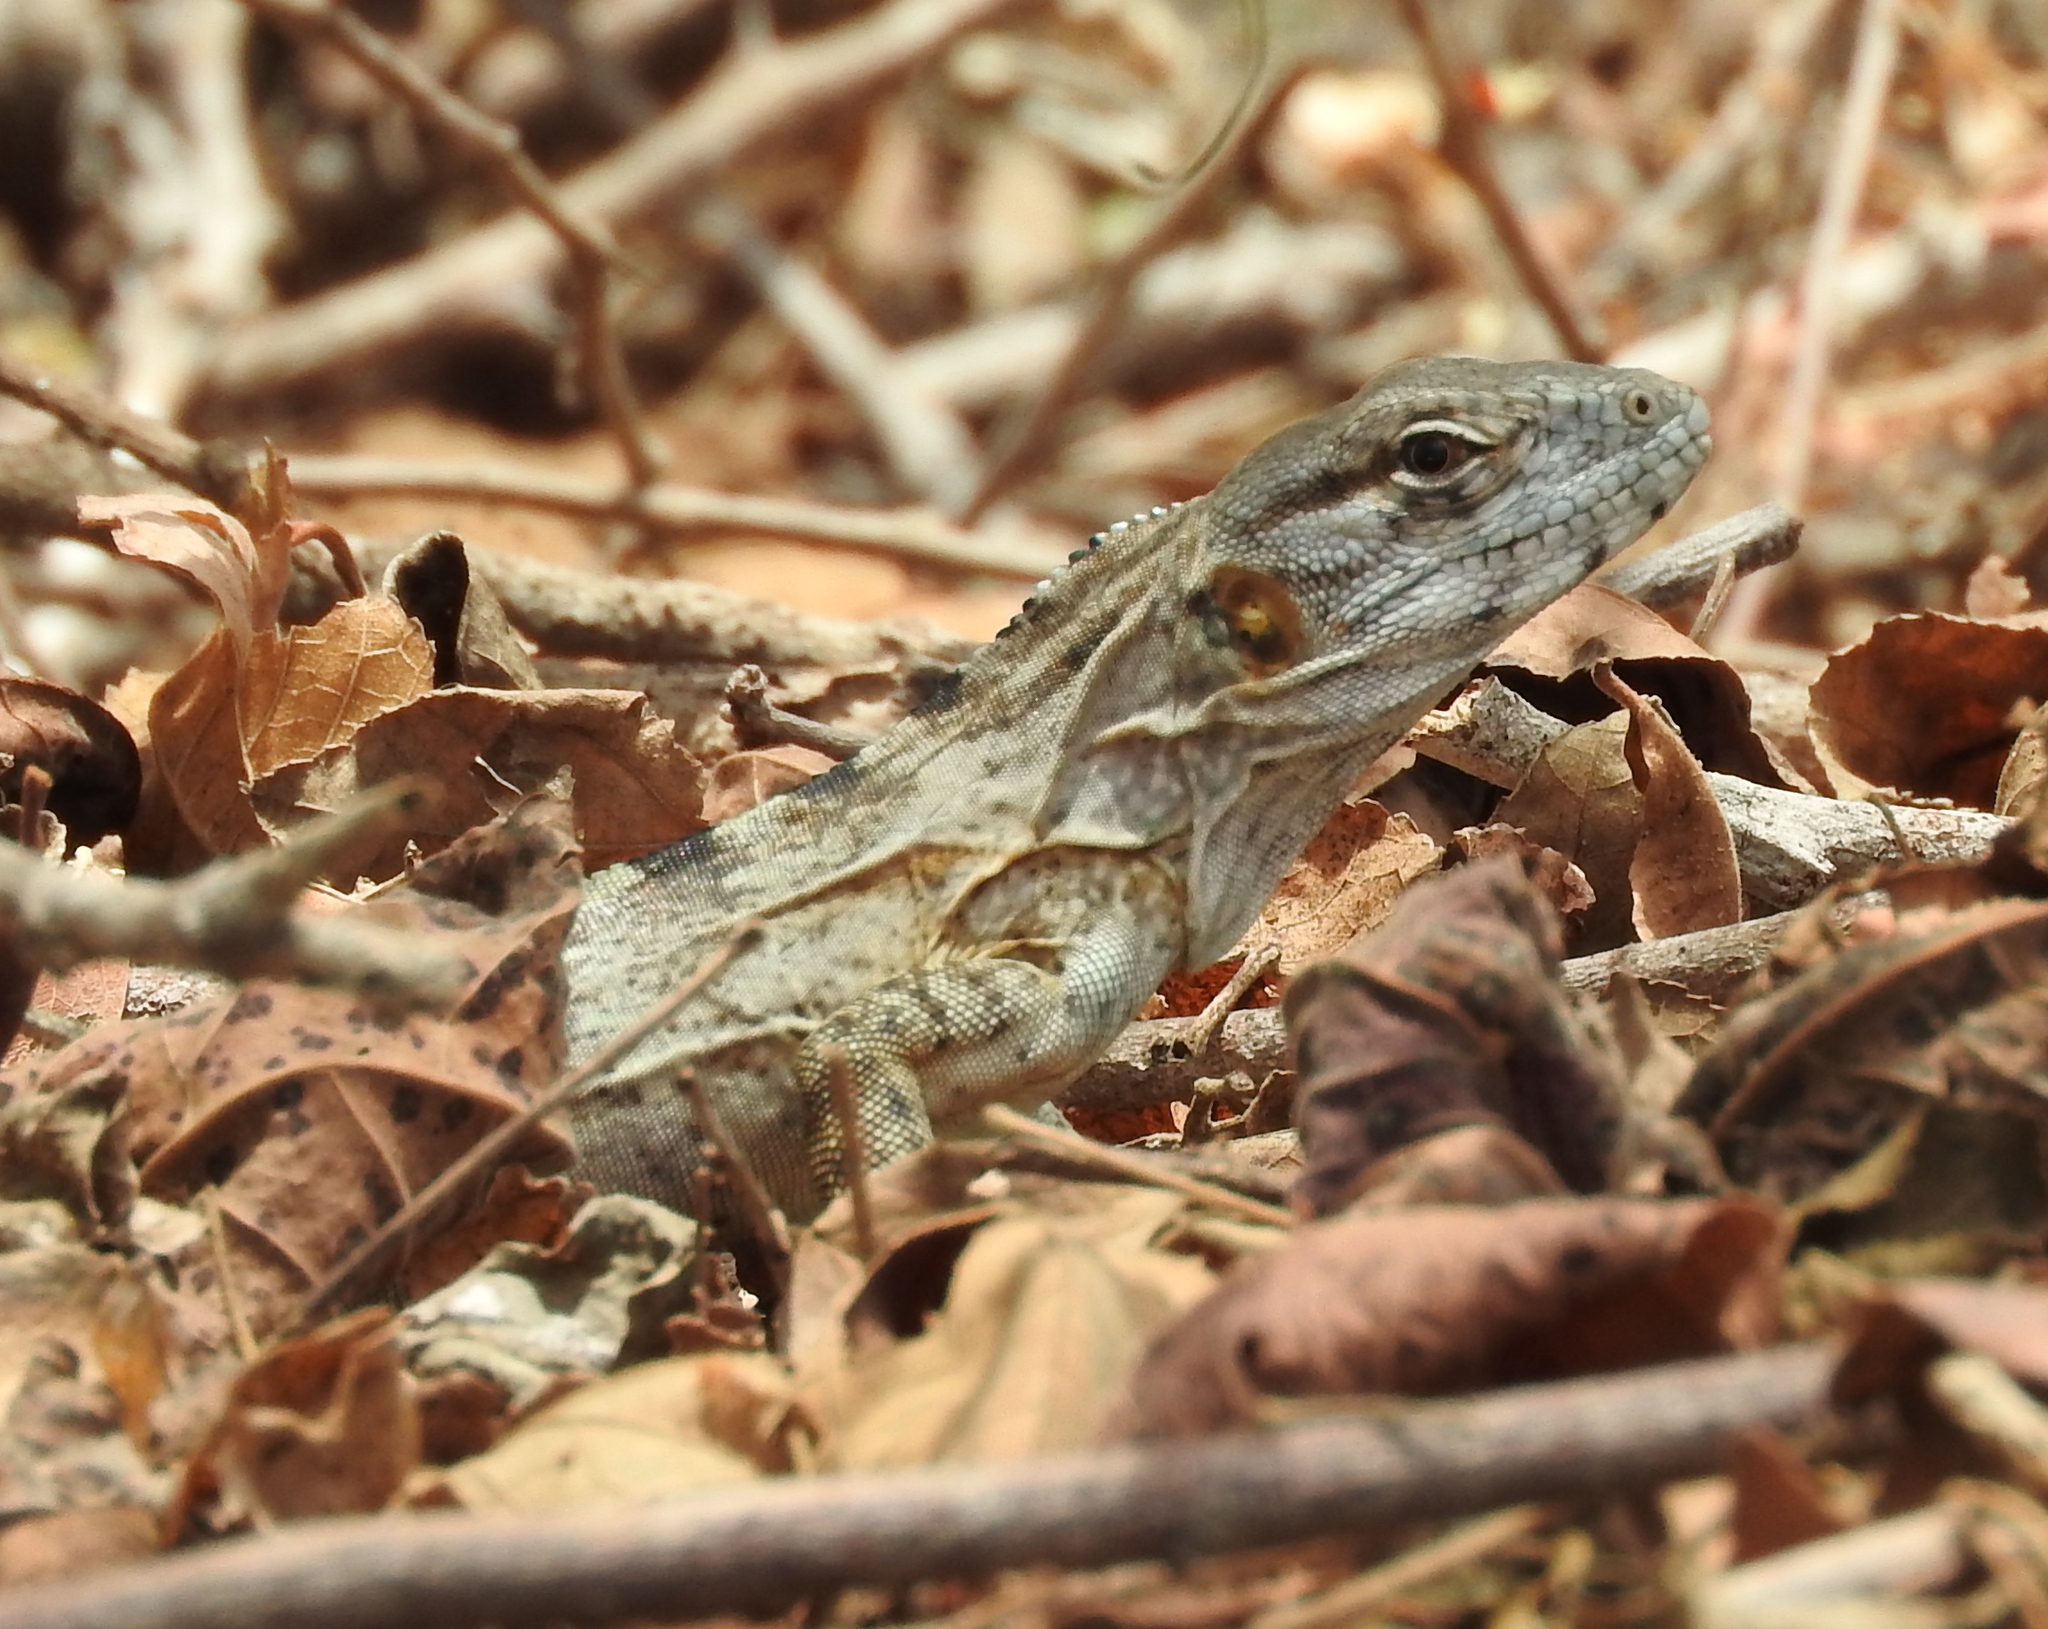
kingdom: Animalia
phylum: Chordata
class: Squamata
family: Iguanidae
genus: Ctenosaura
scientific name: Ctenosaura pectinata
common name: Guerreran spiny-tailed iguana
